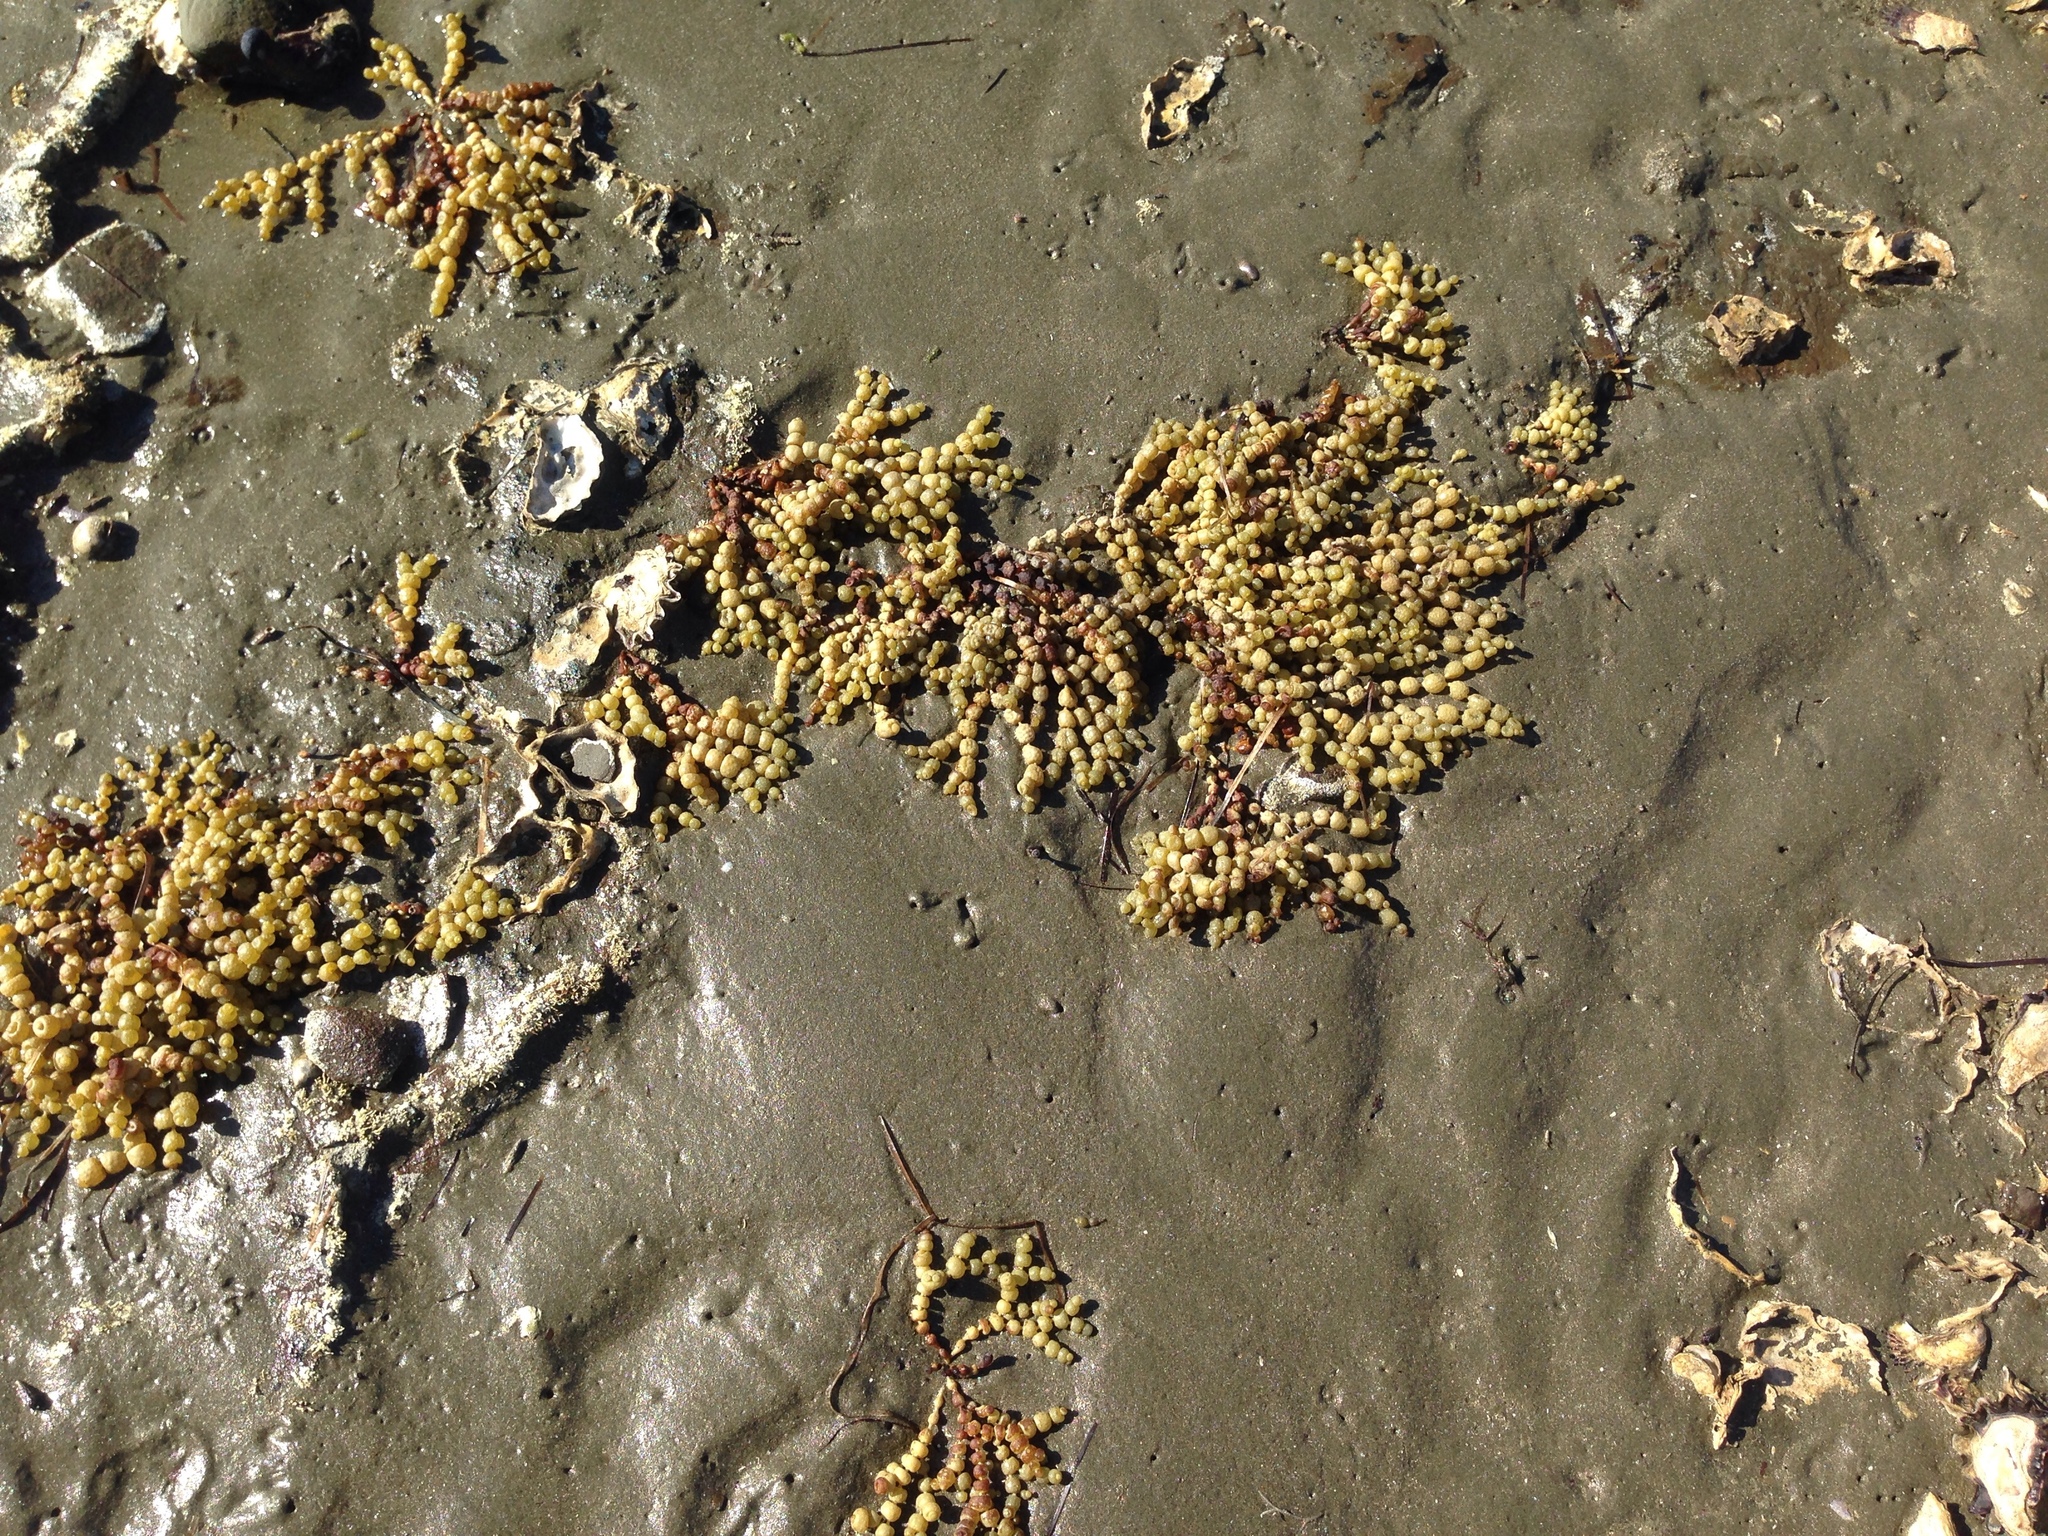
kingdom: Chromista
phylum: Ochrophyta
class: Phaeophyceae
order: Fucales
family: Hormosiraceae
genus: Hormosira
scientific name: Hormosira banksii
